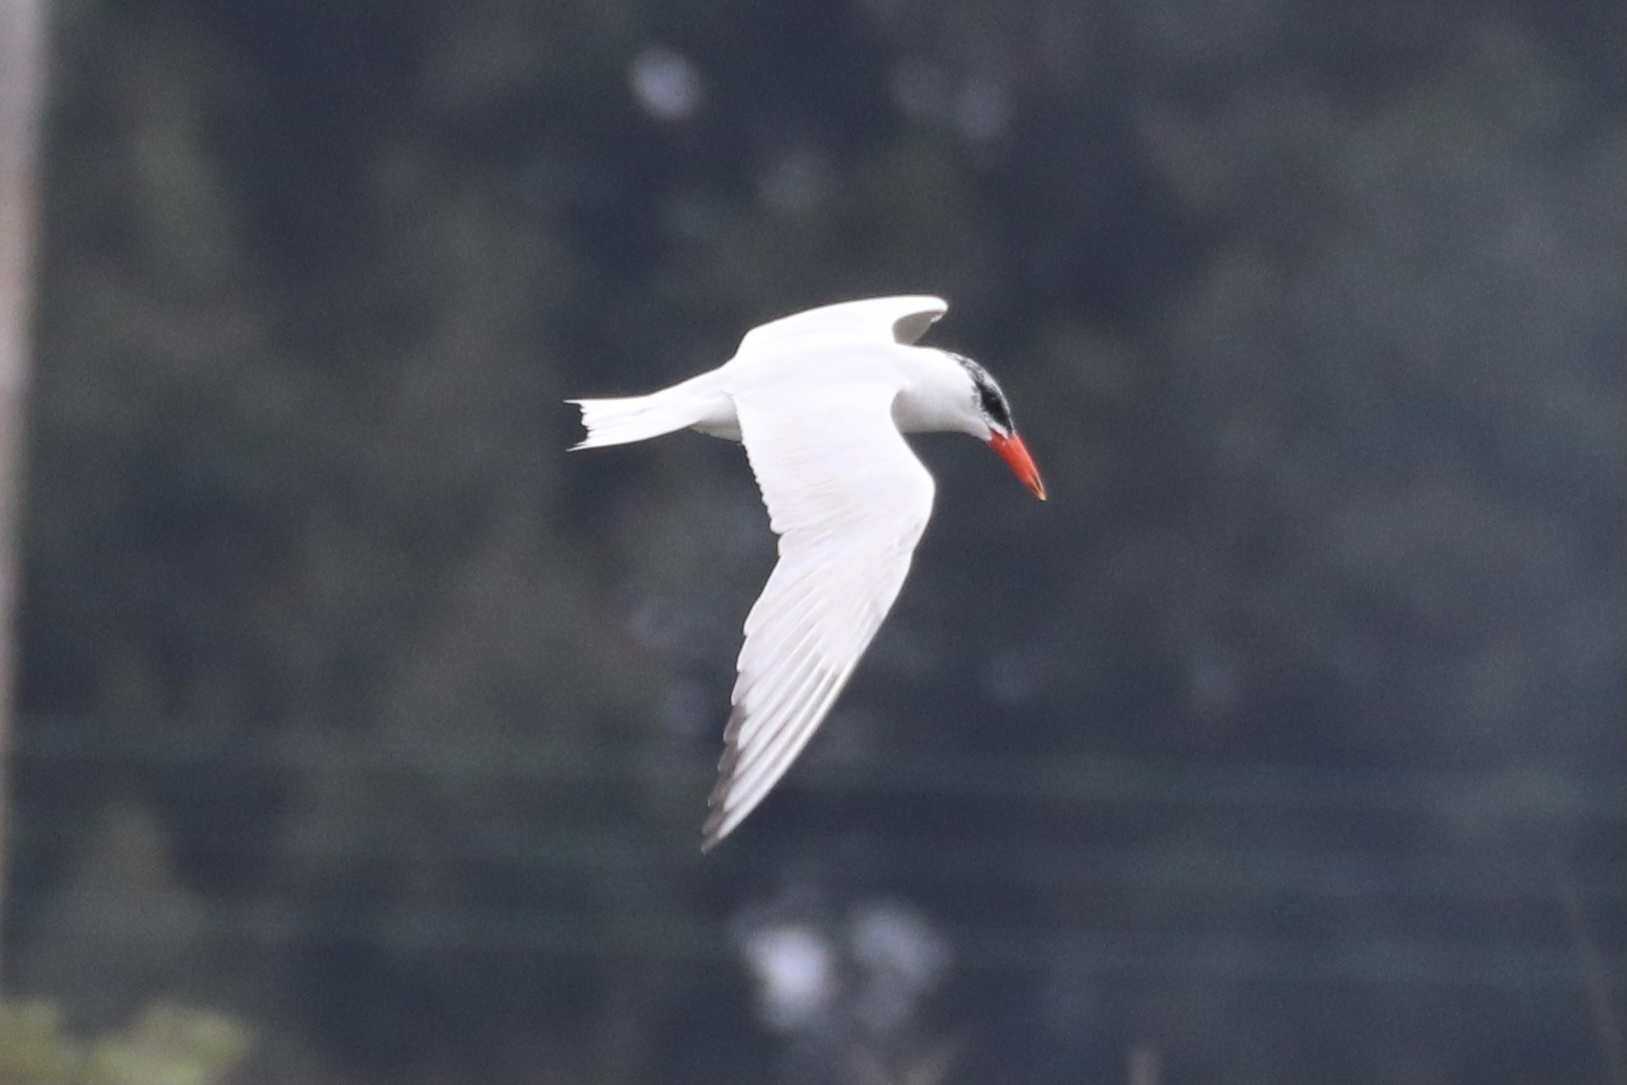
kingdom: Animalia
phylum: Chordata
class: Aves
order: Charadriiformes
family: Laridae
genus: Hydroprogne
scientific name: Hydroprogne caspia
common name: Caspian tern
